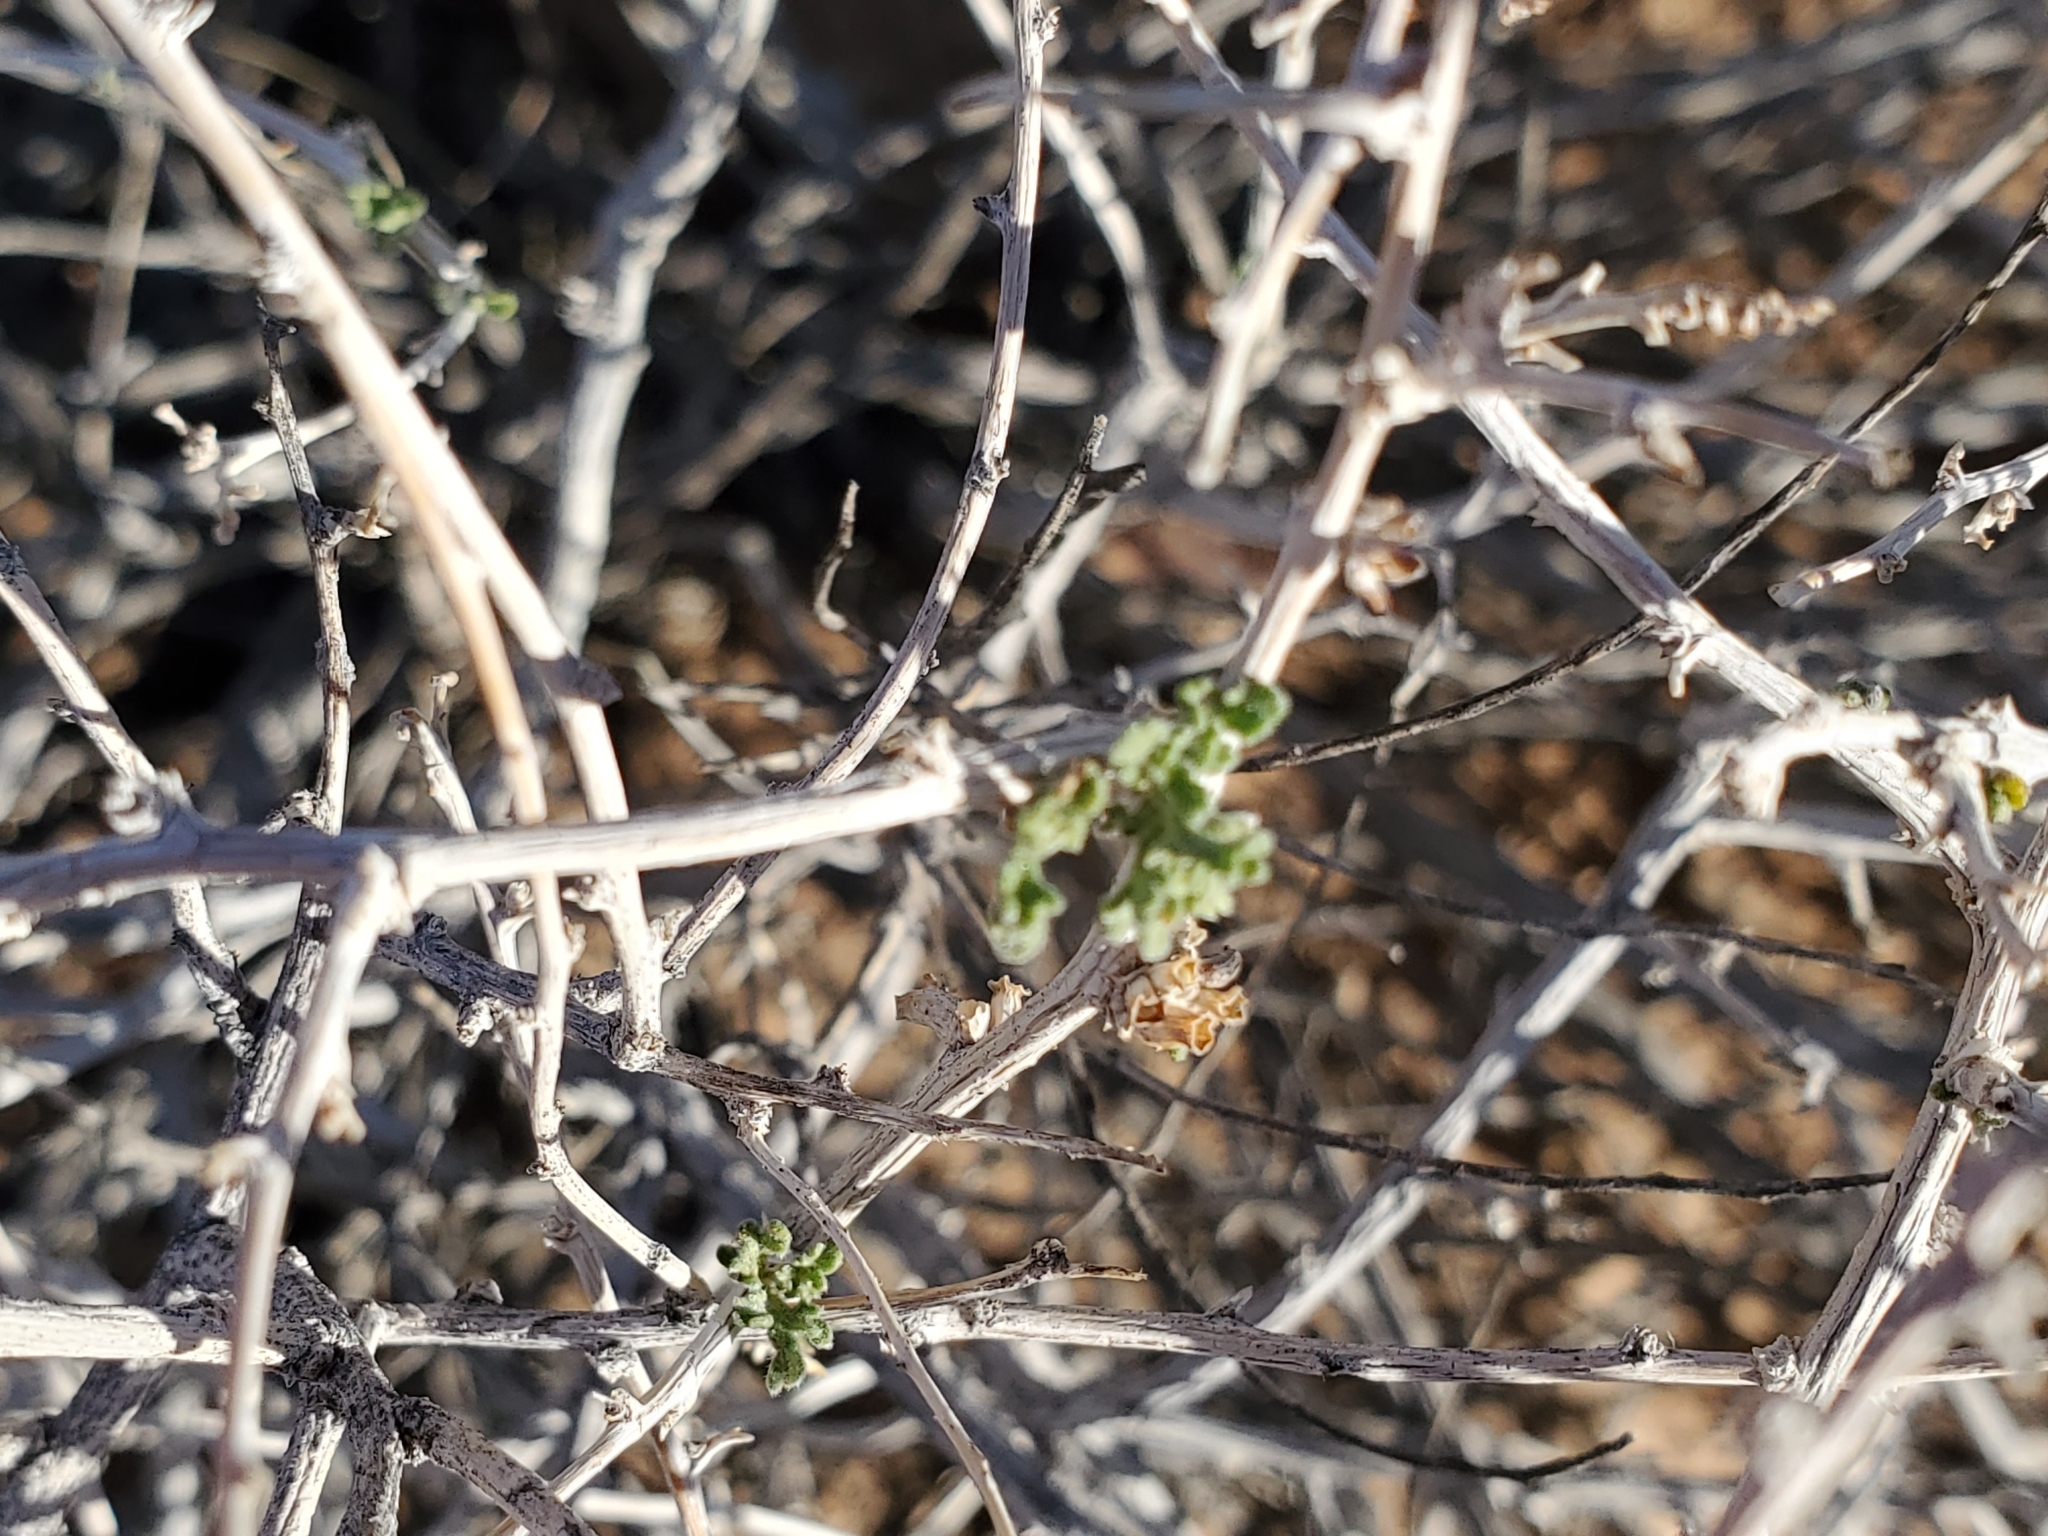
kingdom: Plantae
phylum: Tracheophyta
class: Magnoliopsida
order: Asterales
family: Asteraceae
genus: Ambrosia
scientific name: Ambrosia dumosa
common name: Bur-sage
